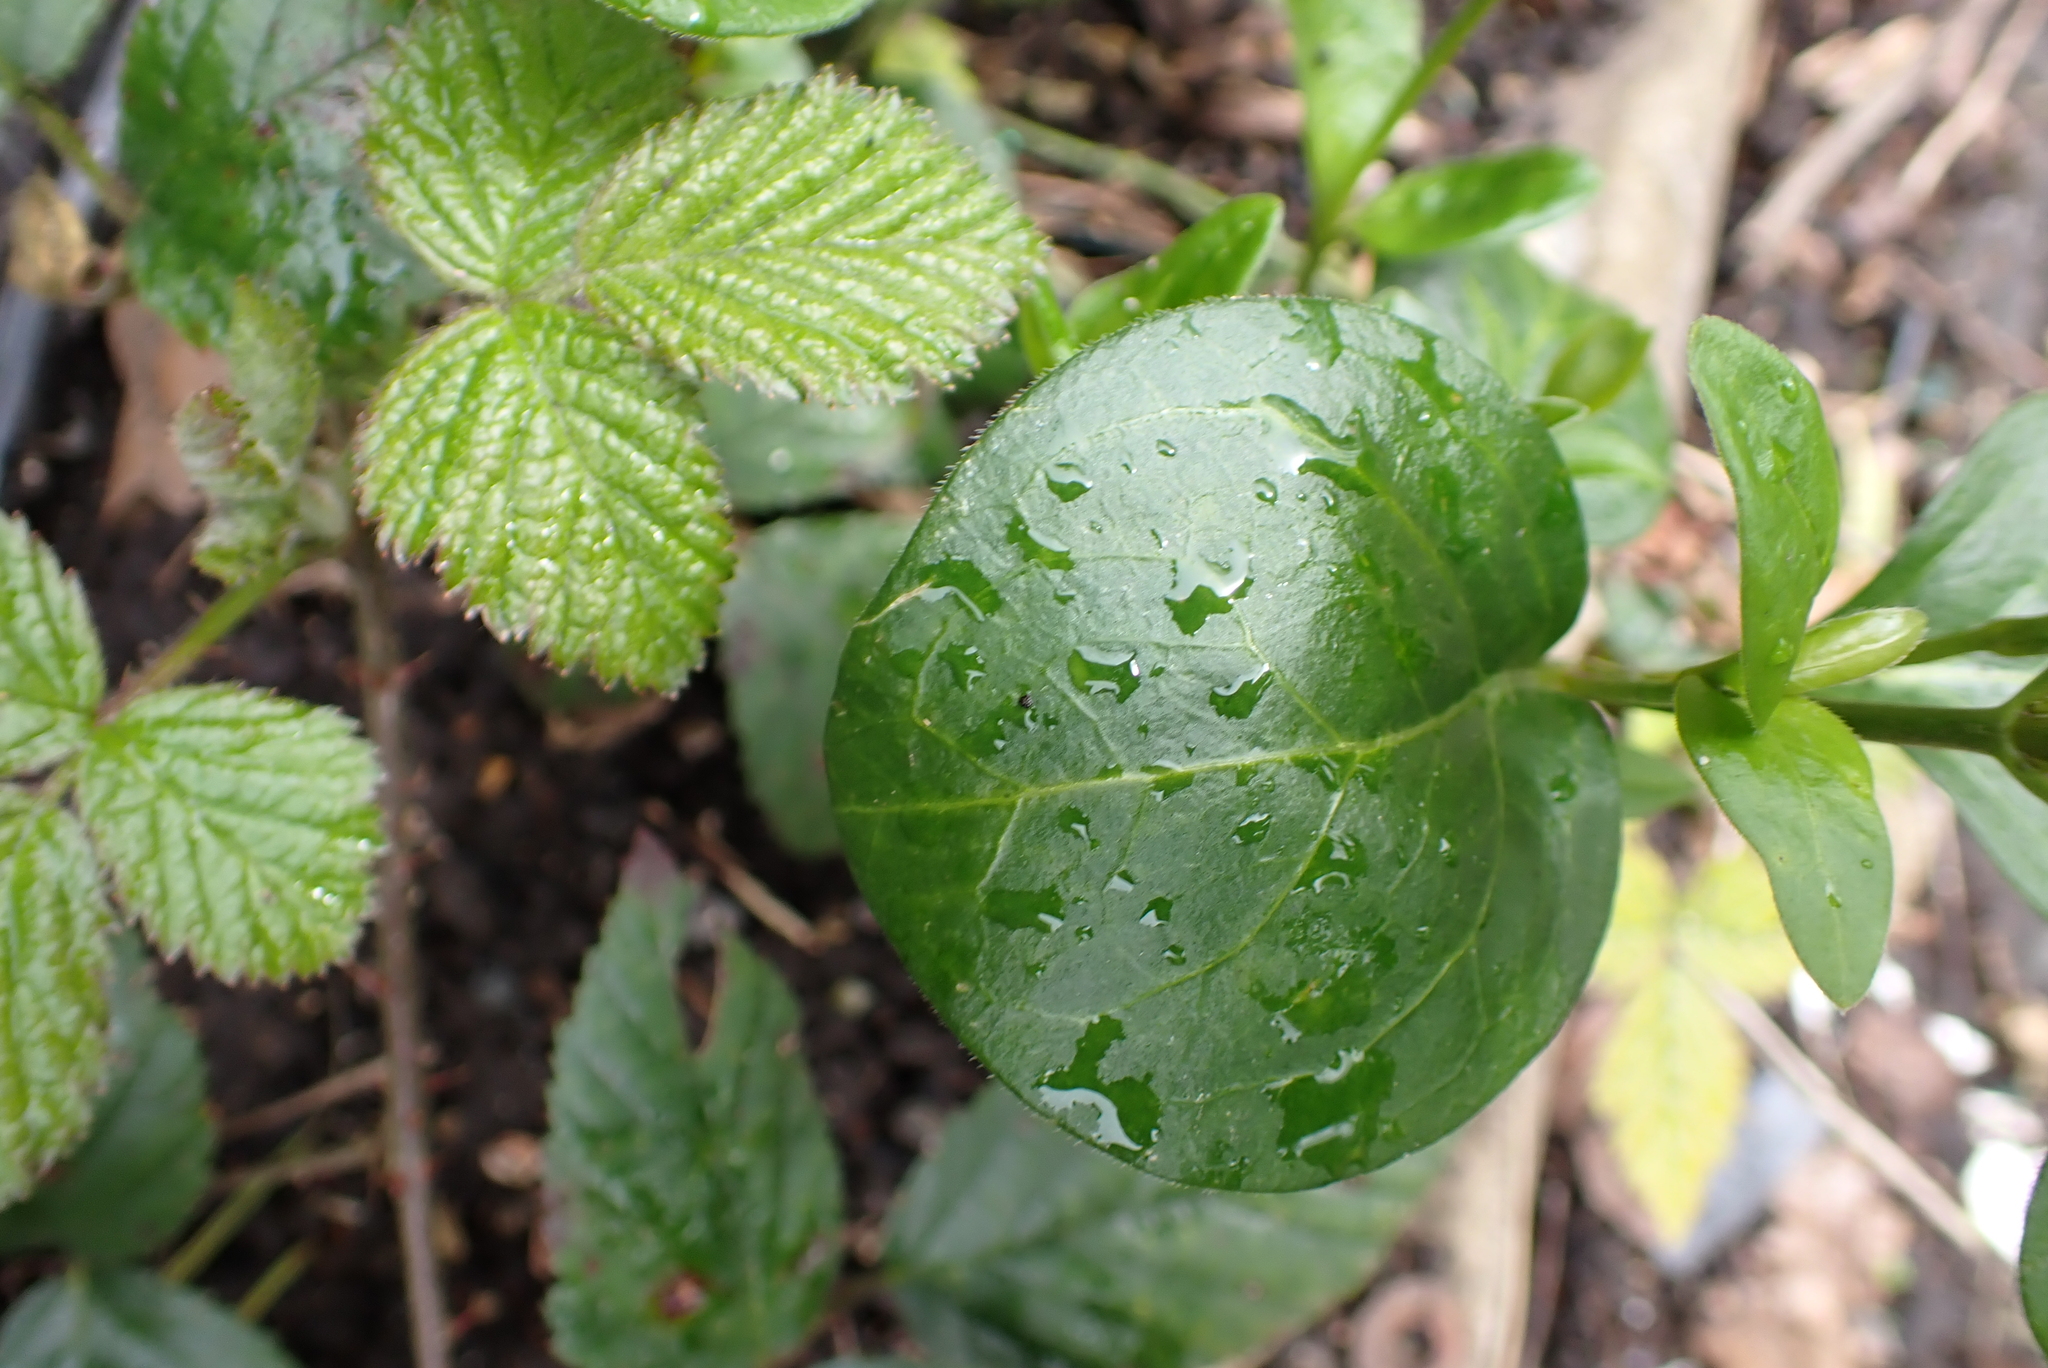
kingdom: Plantae
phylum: Tracheophyta
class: Magnoliopsida
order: Gentianales
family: Apocynaceae
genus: Vinca
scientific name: Vinca major
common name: Greater periwinkle
